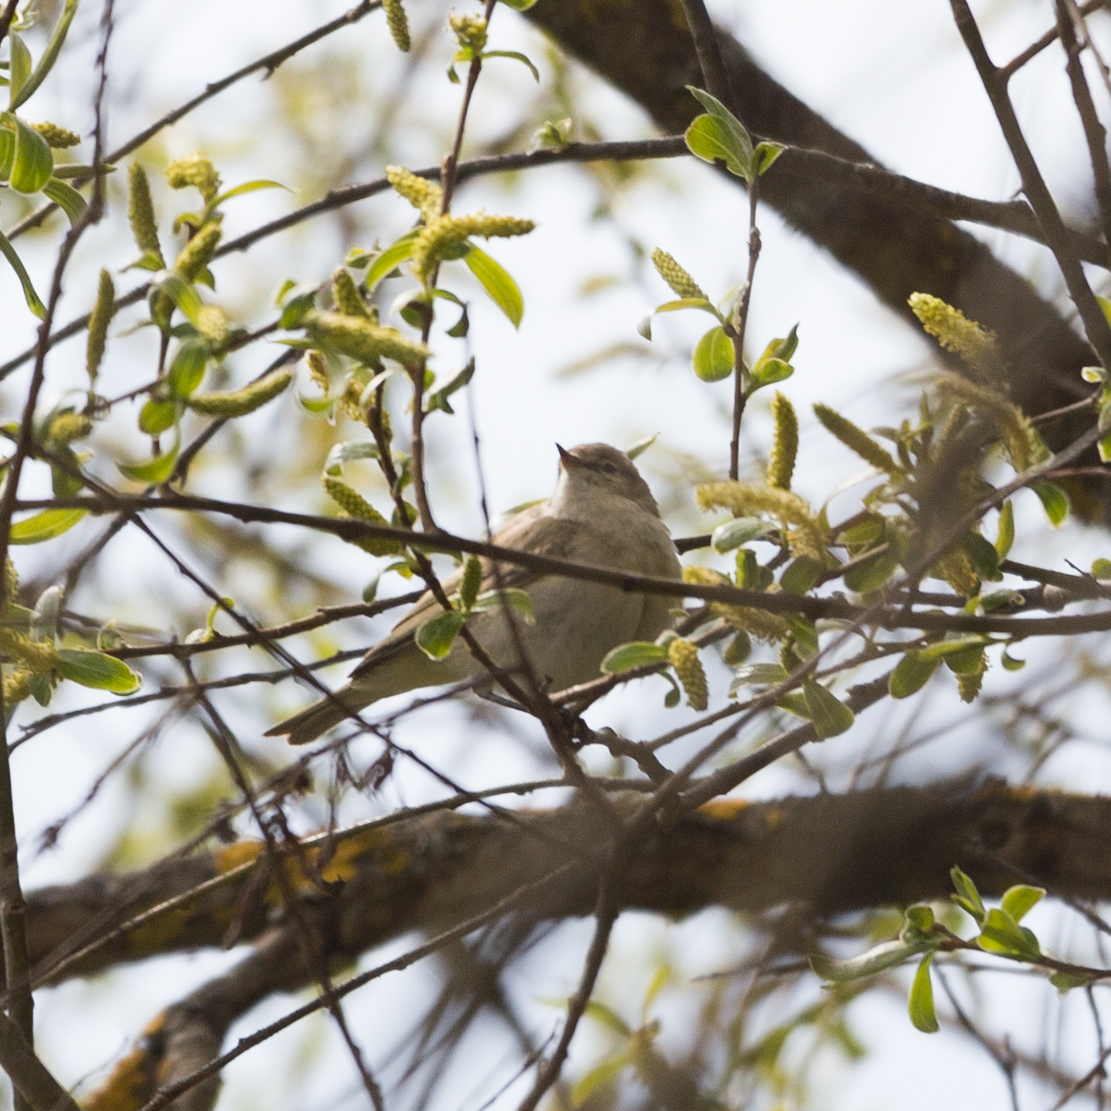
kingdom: Animalia
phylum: Chordata
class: Aves
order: Passeriformes
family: Phylloscopidae
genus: Phylloscopus
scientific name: Phylloscopus collybita
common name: Common chiffchaff
